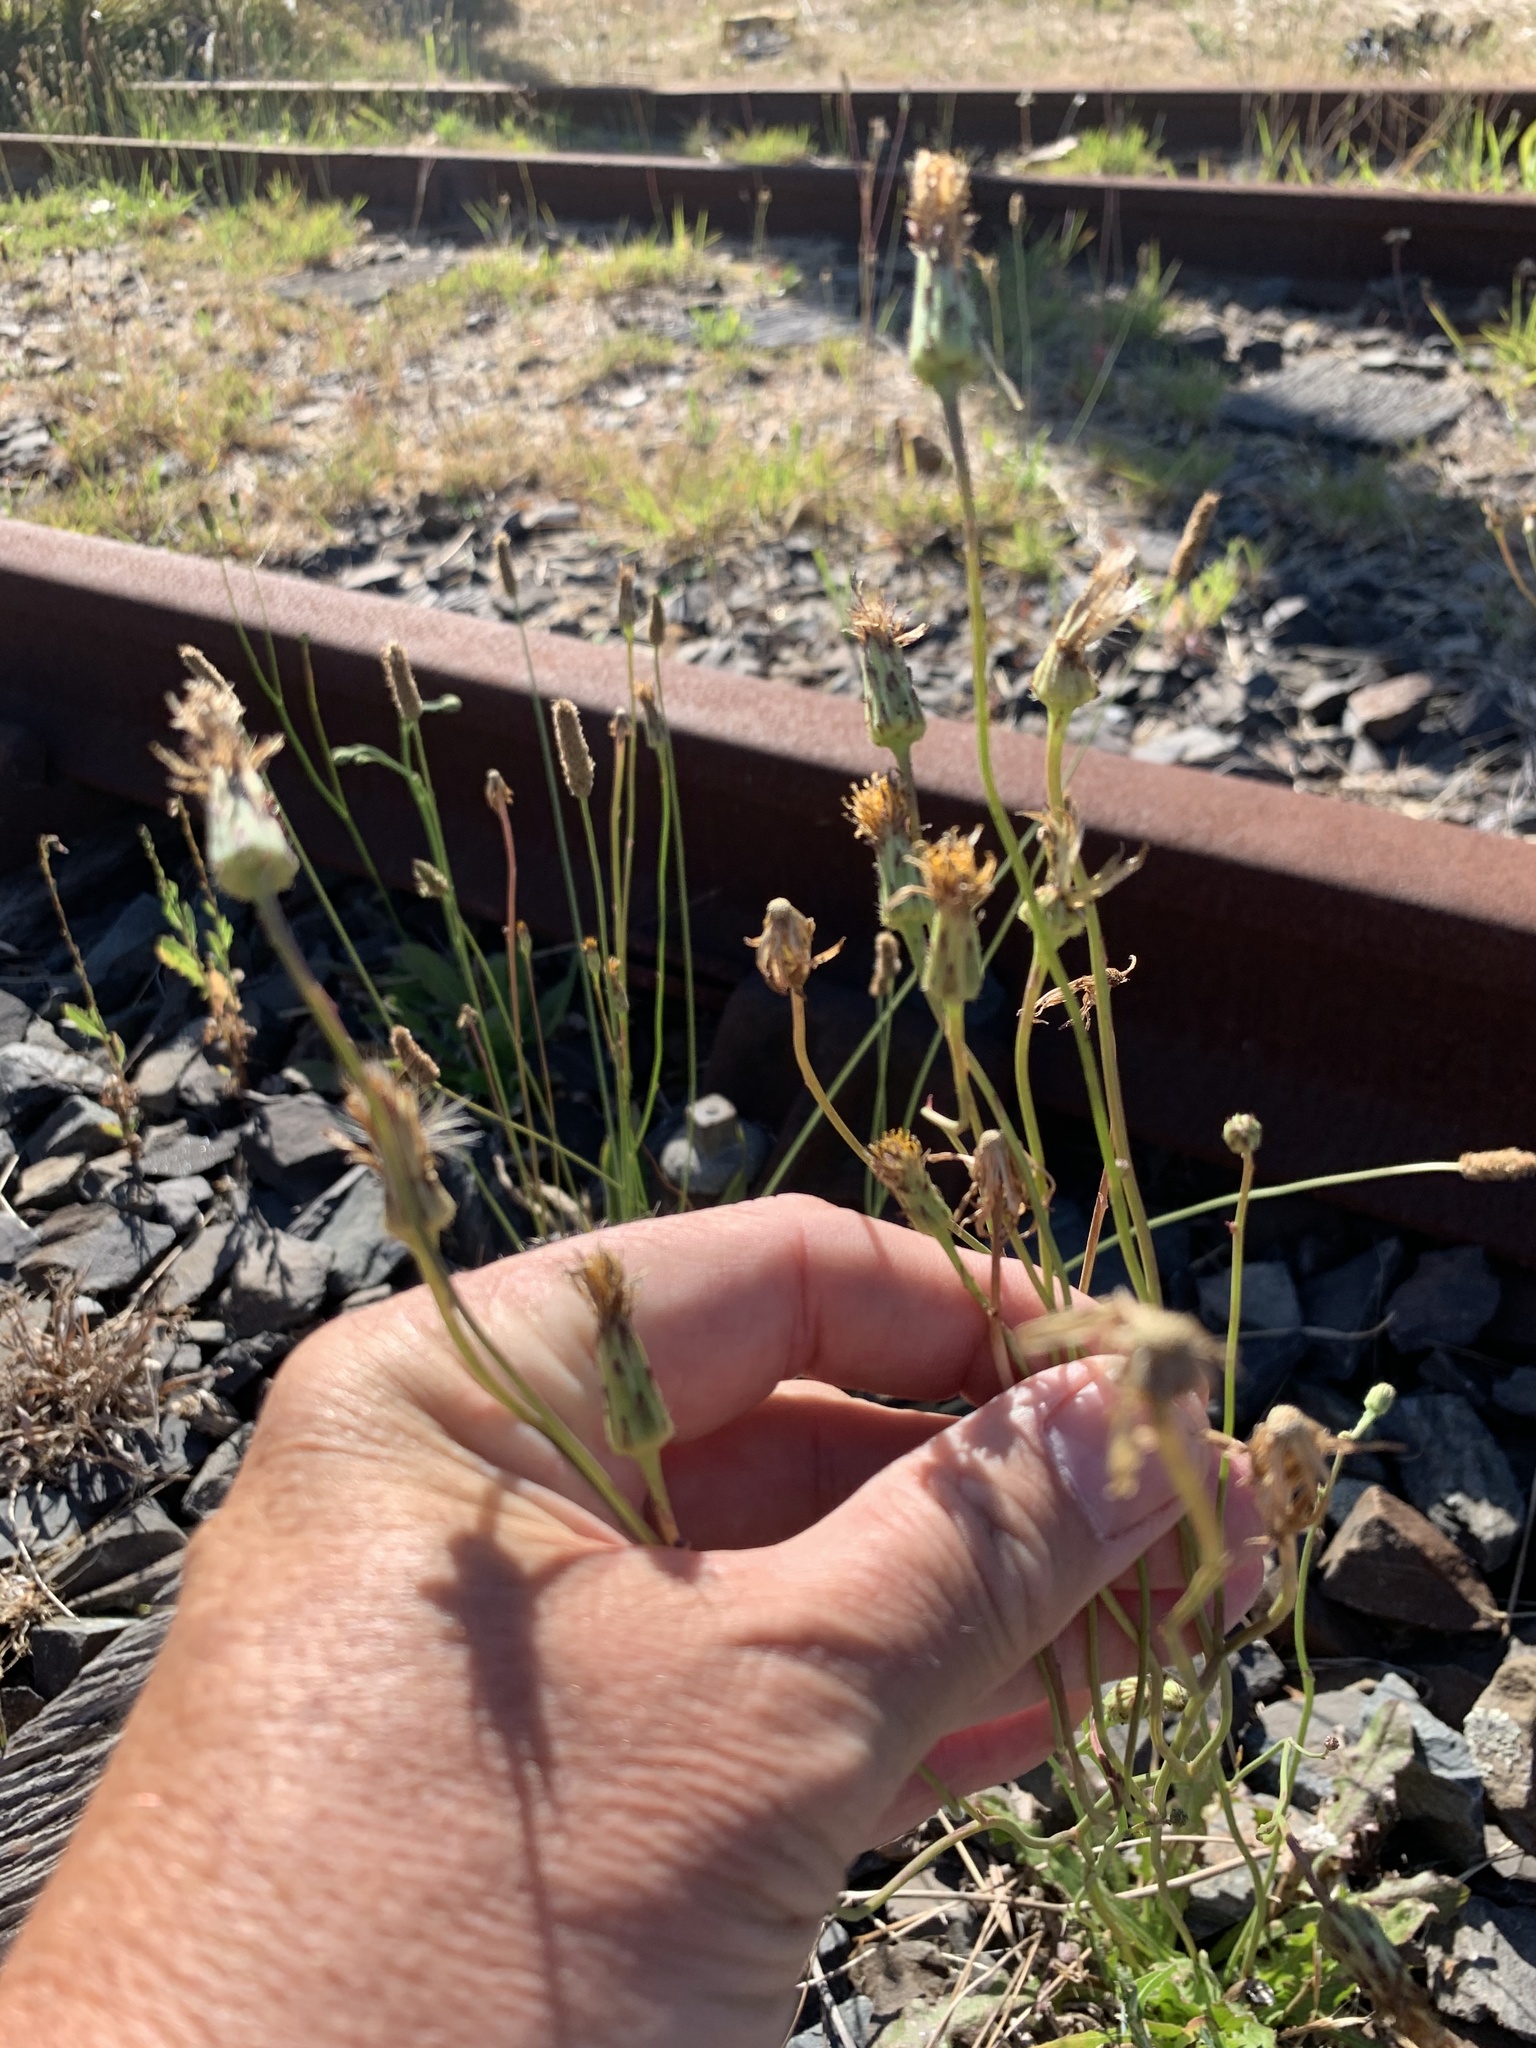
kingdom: Plantae
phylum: Tracheophyta
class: Magnoliopsida
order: Asterales
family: Asteraceae
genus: Hypochaeris
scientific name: Hypochaeris radicata
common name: Flatweed
